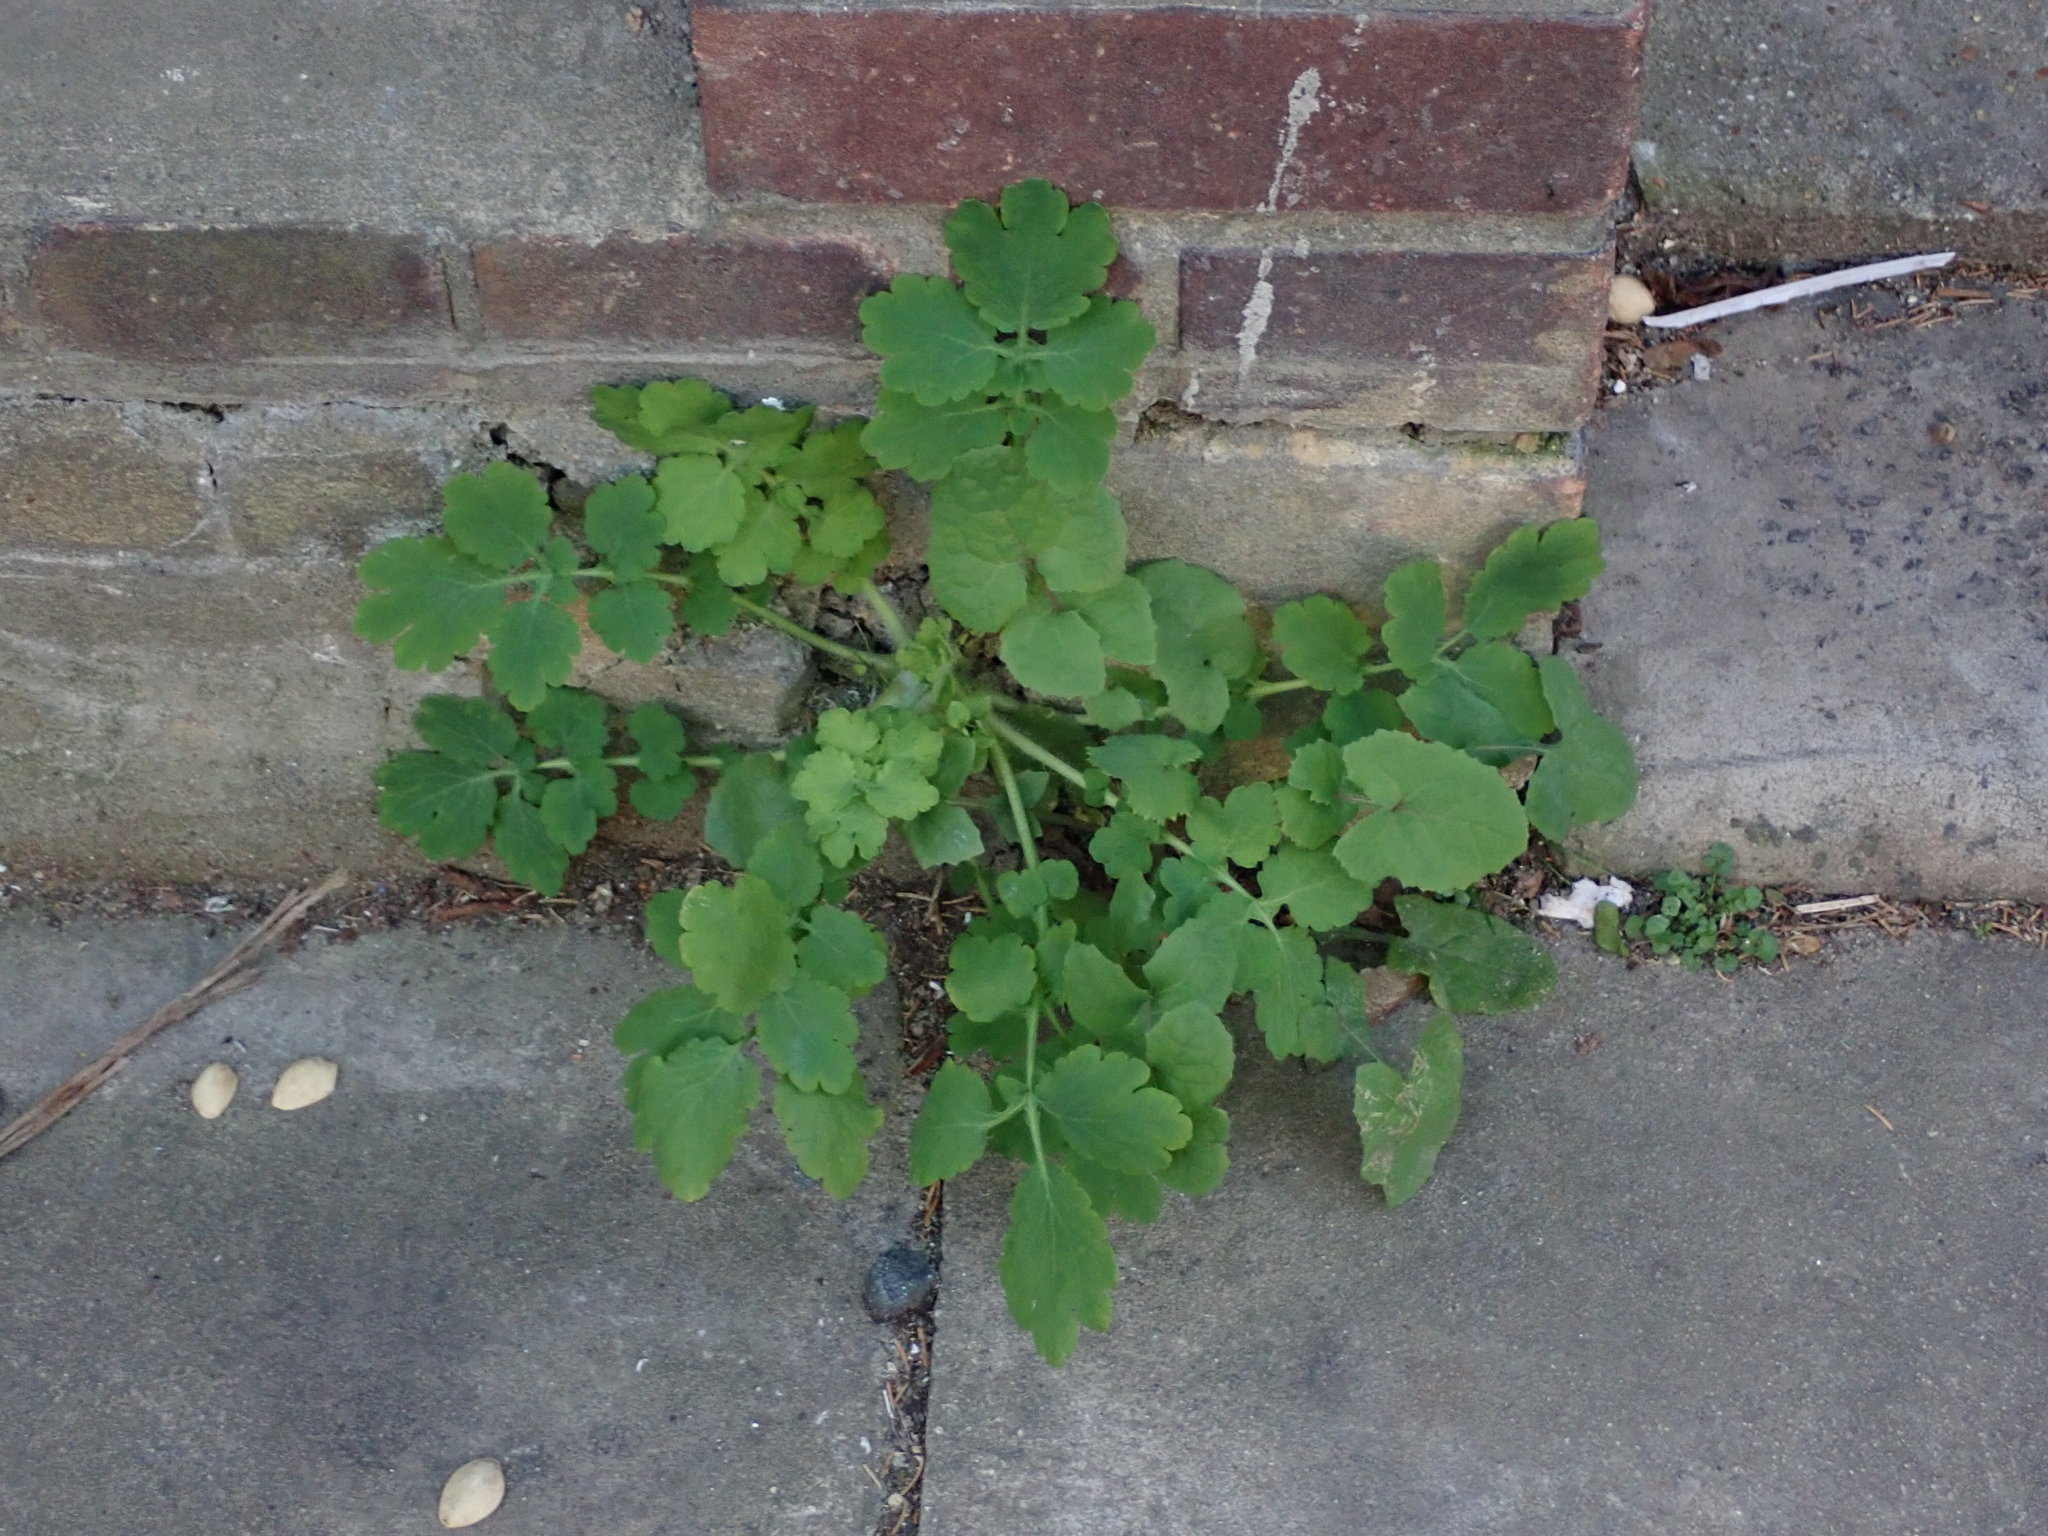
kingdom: Plantae
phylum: Tracheophyta
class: Magnoliopsida
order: Ranunculales
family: Papaveraceae
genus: Chelidonium
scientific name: Chelidonium majus
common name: Greater celandine
